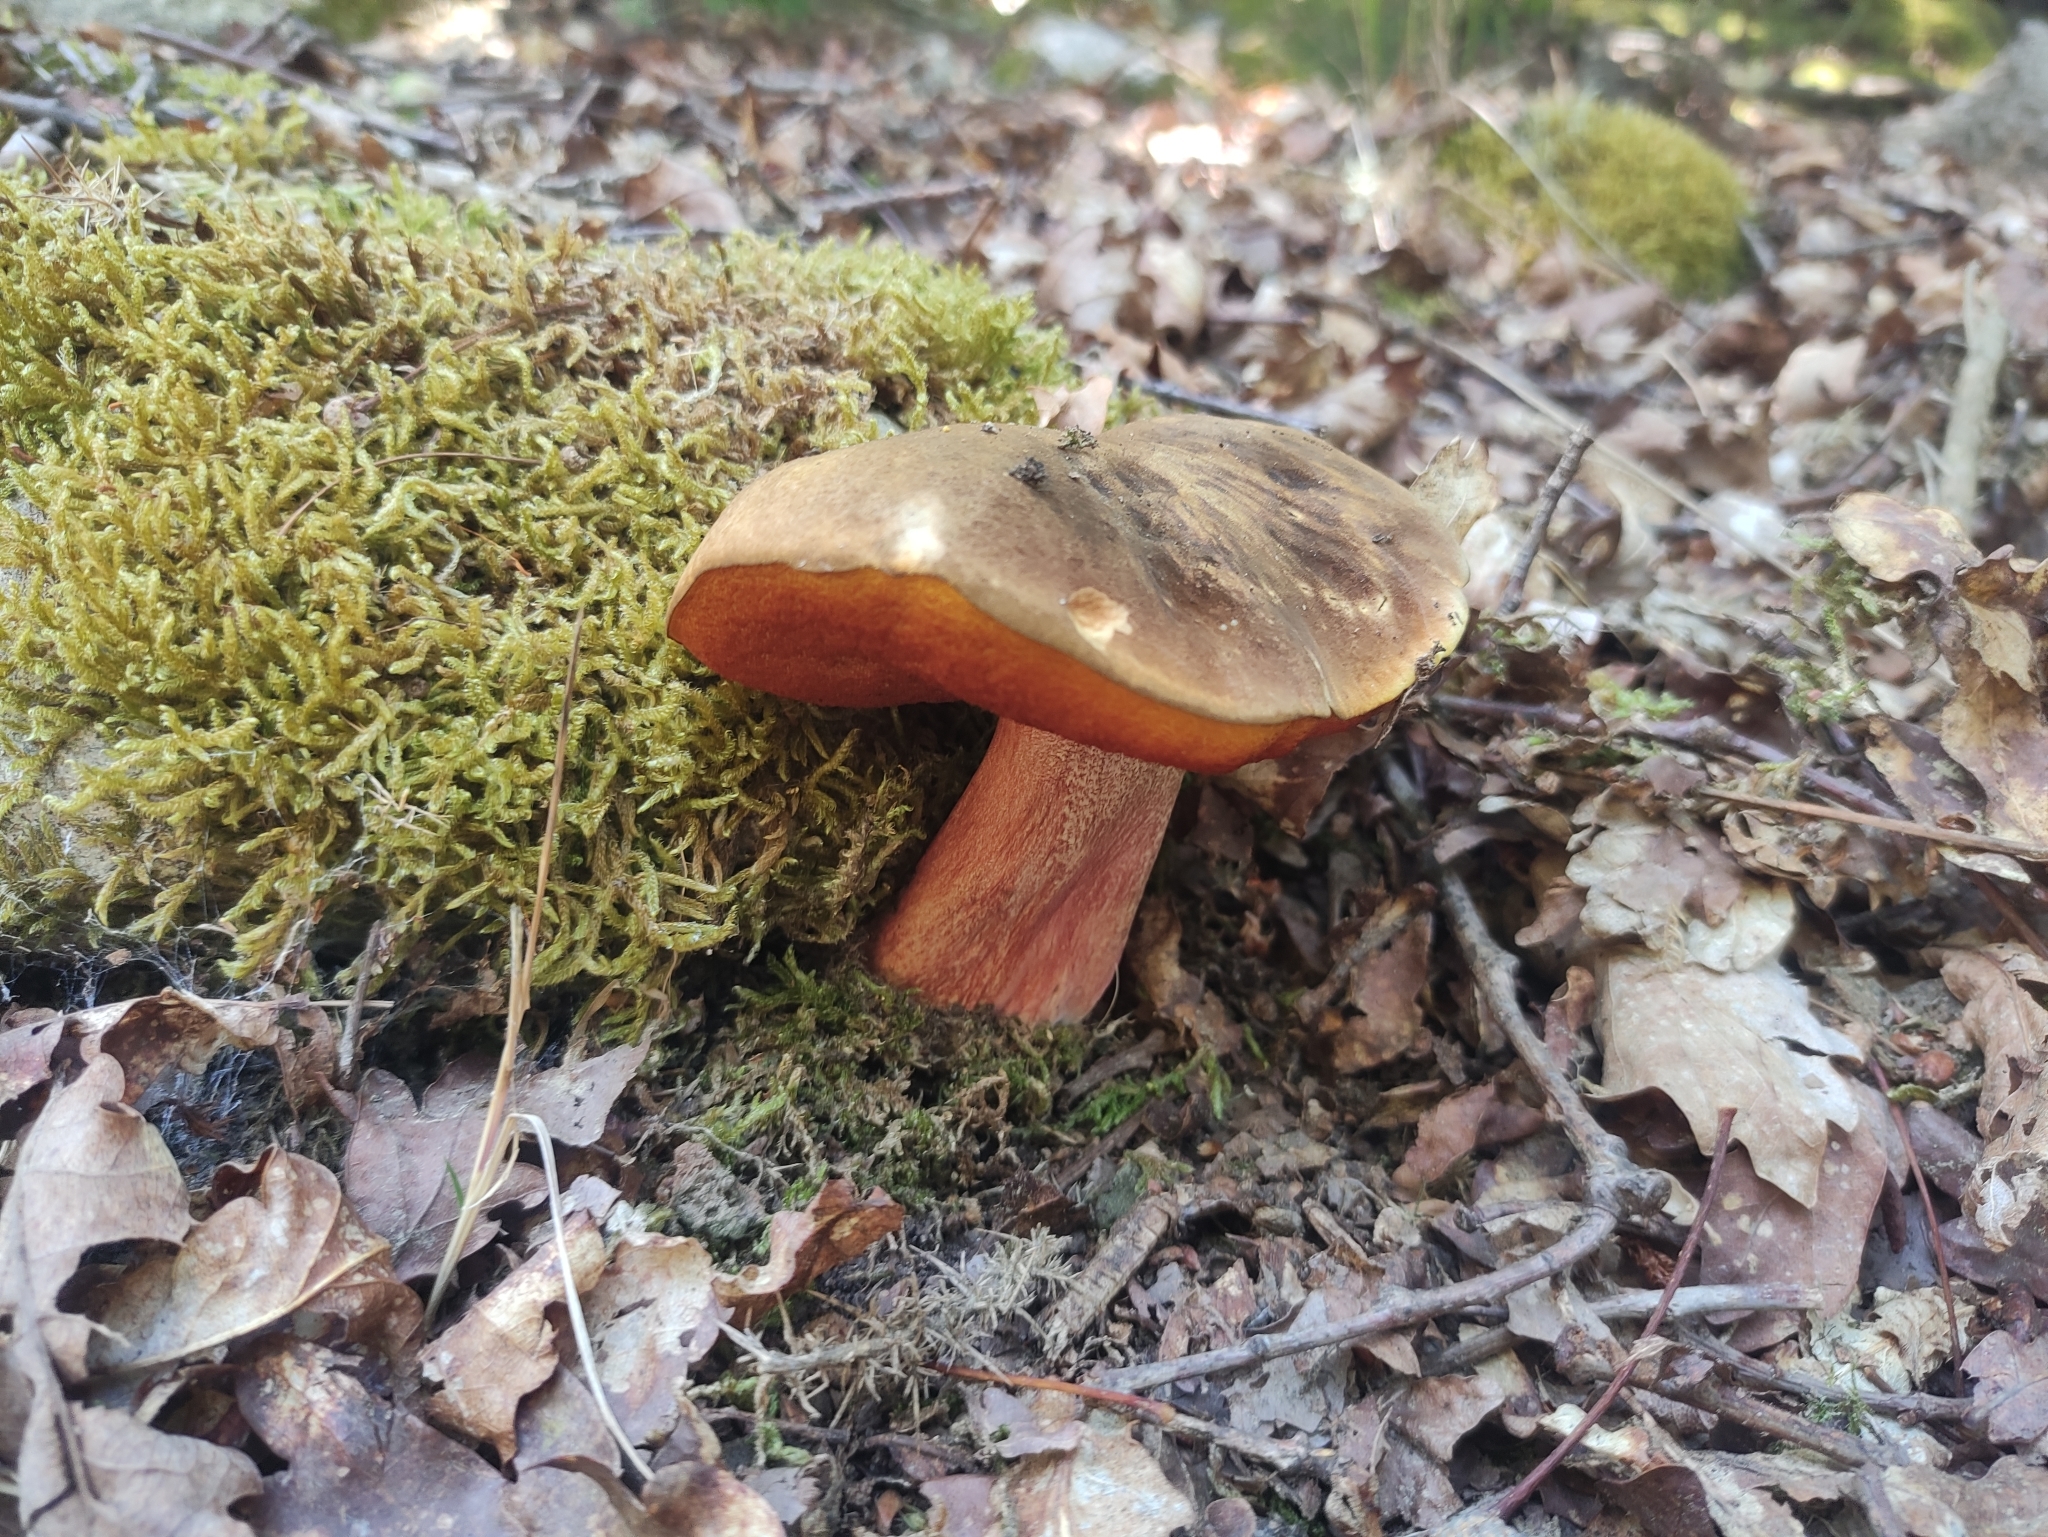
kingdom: Fungi
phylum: Basidiomycota
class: Agaricomycetes
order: Boletales
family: Boletaceae
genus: Neoboletus
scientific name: Neoboletus erythropus
